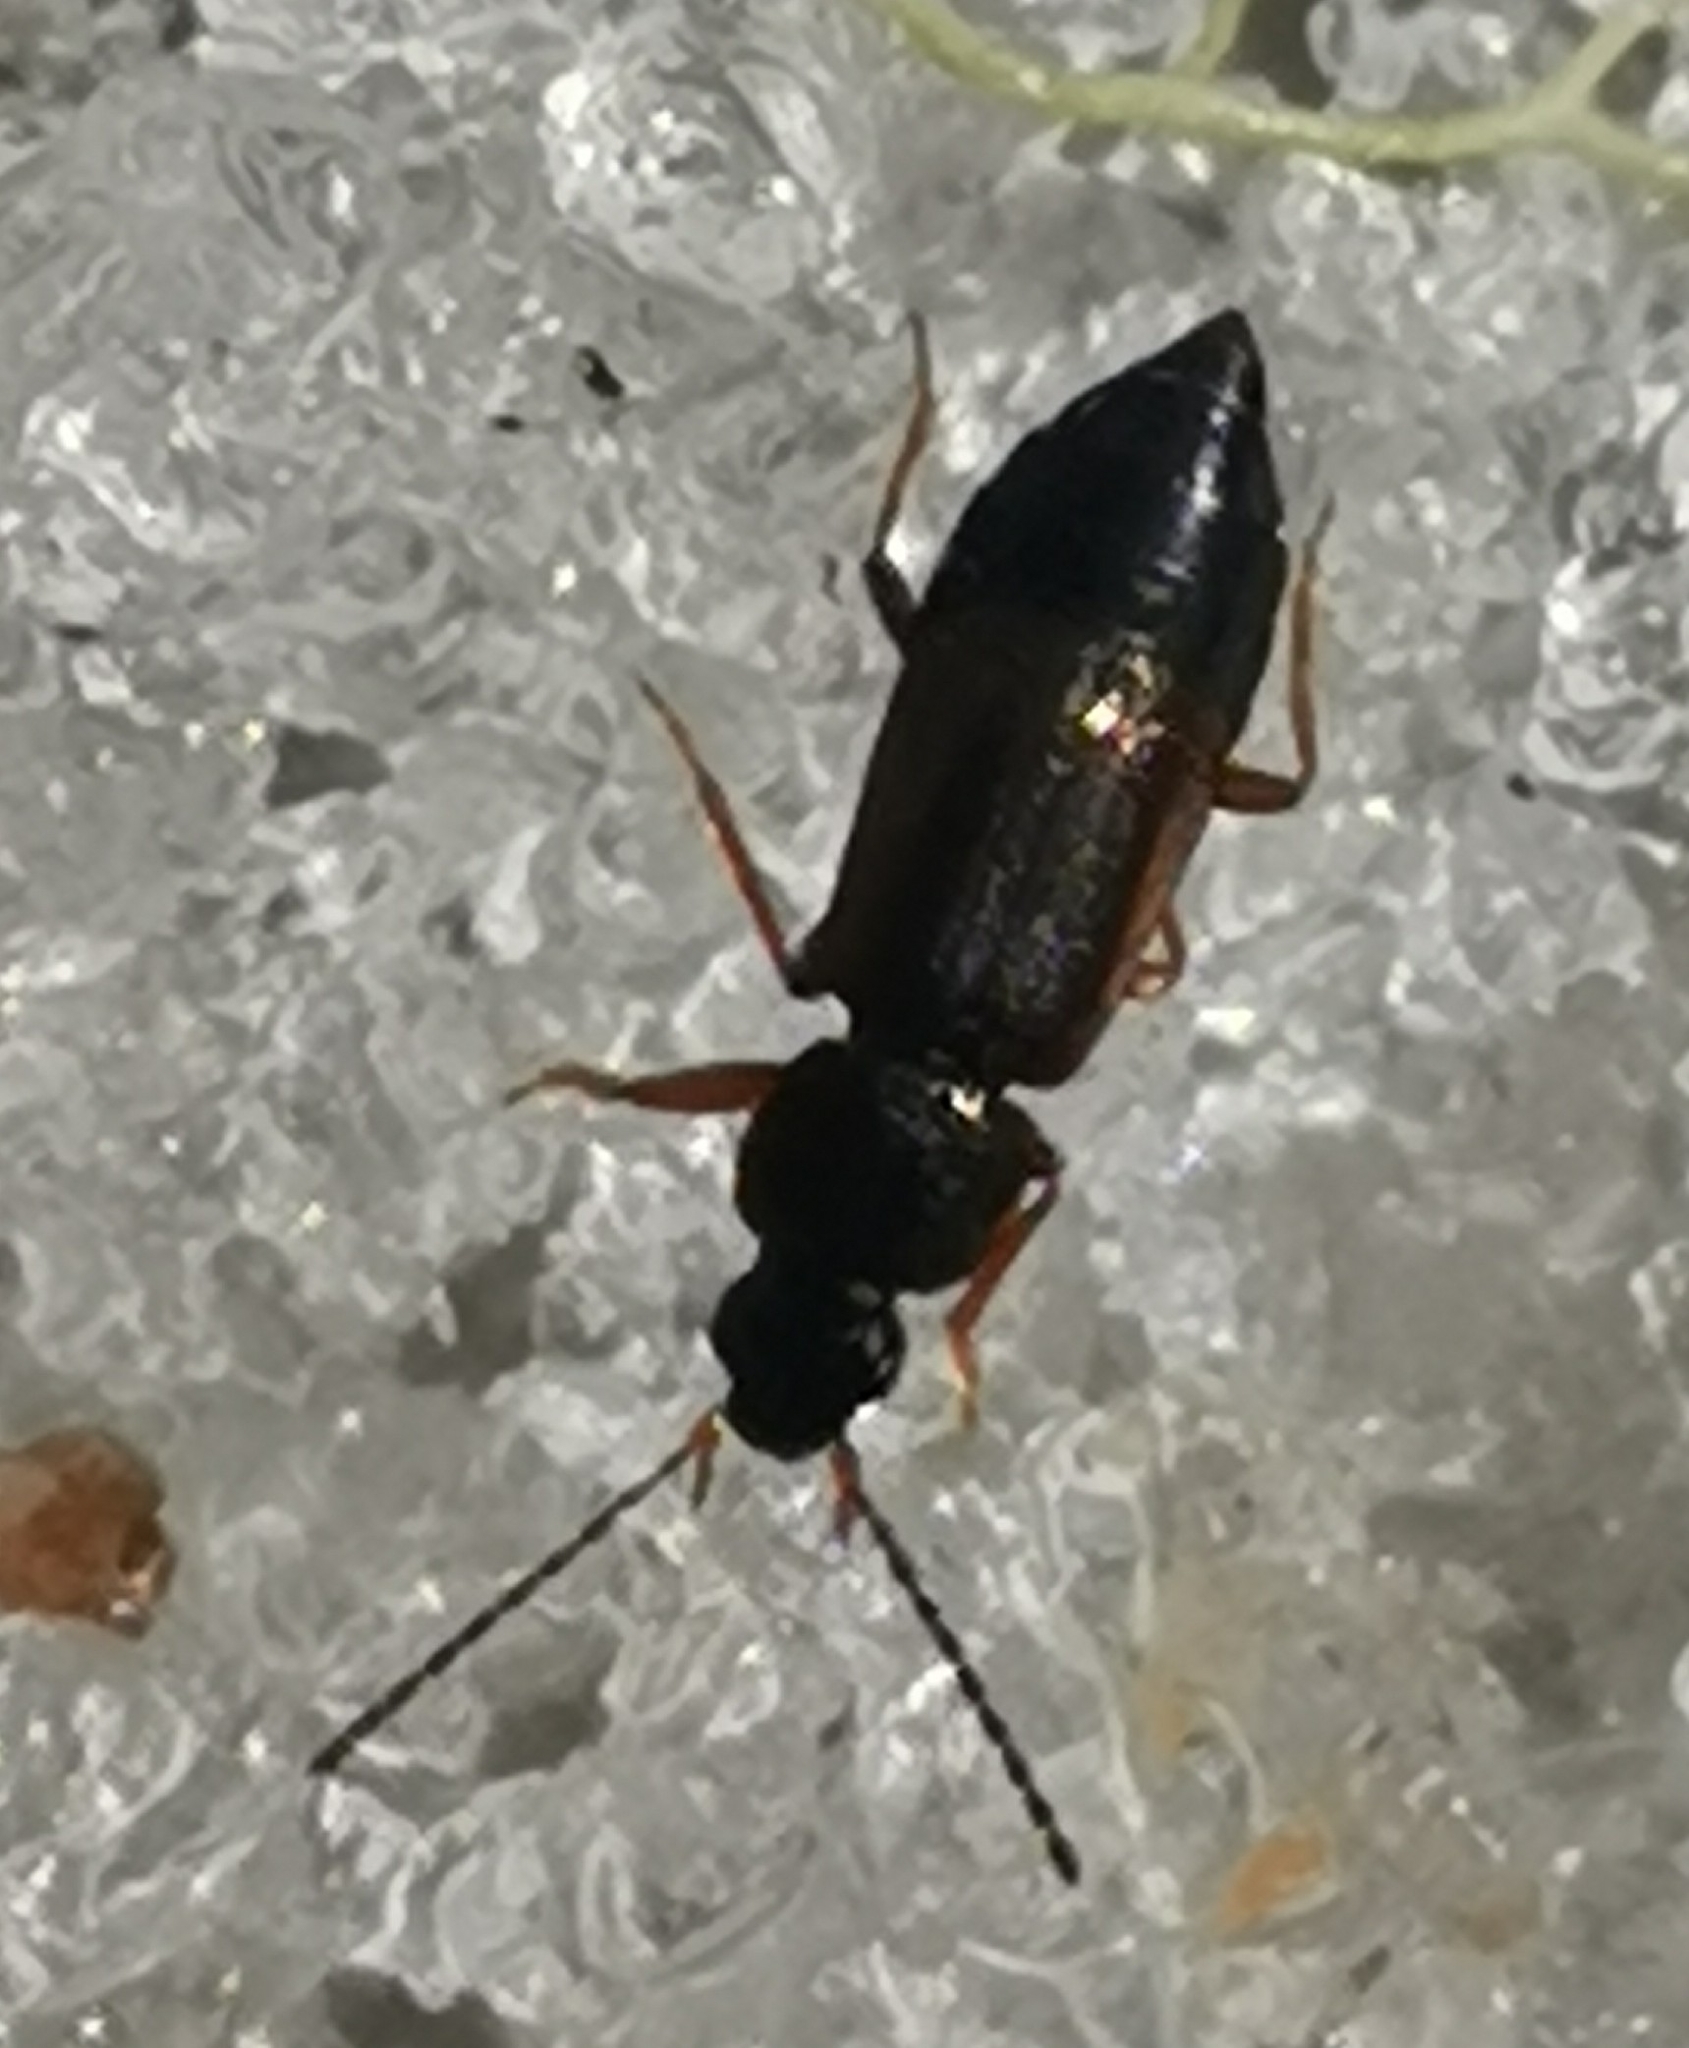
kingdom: Animalia
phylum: Arthropoda
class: Insecta
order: Coleoptera
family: Staphylinidae
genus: Arpedium
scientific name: Arpedium quadrum
